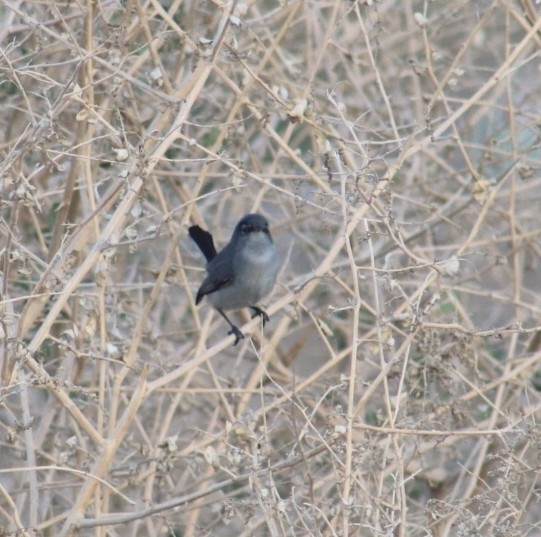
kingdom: Animalia
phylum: Chordata
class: Aves
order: Passeriformes
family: Polioptilidae
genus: Polioptila
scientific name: Polioptila melanura
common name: Black-tailed gnatcatcher
